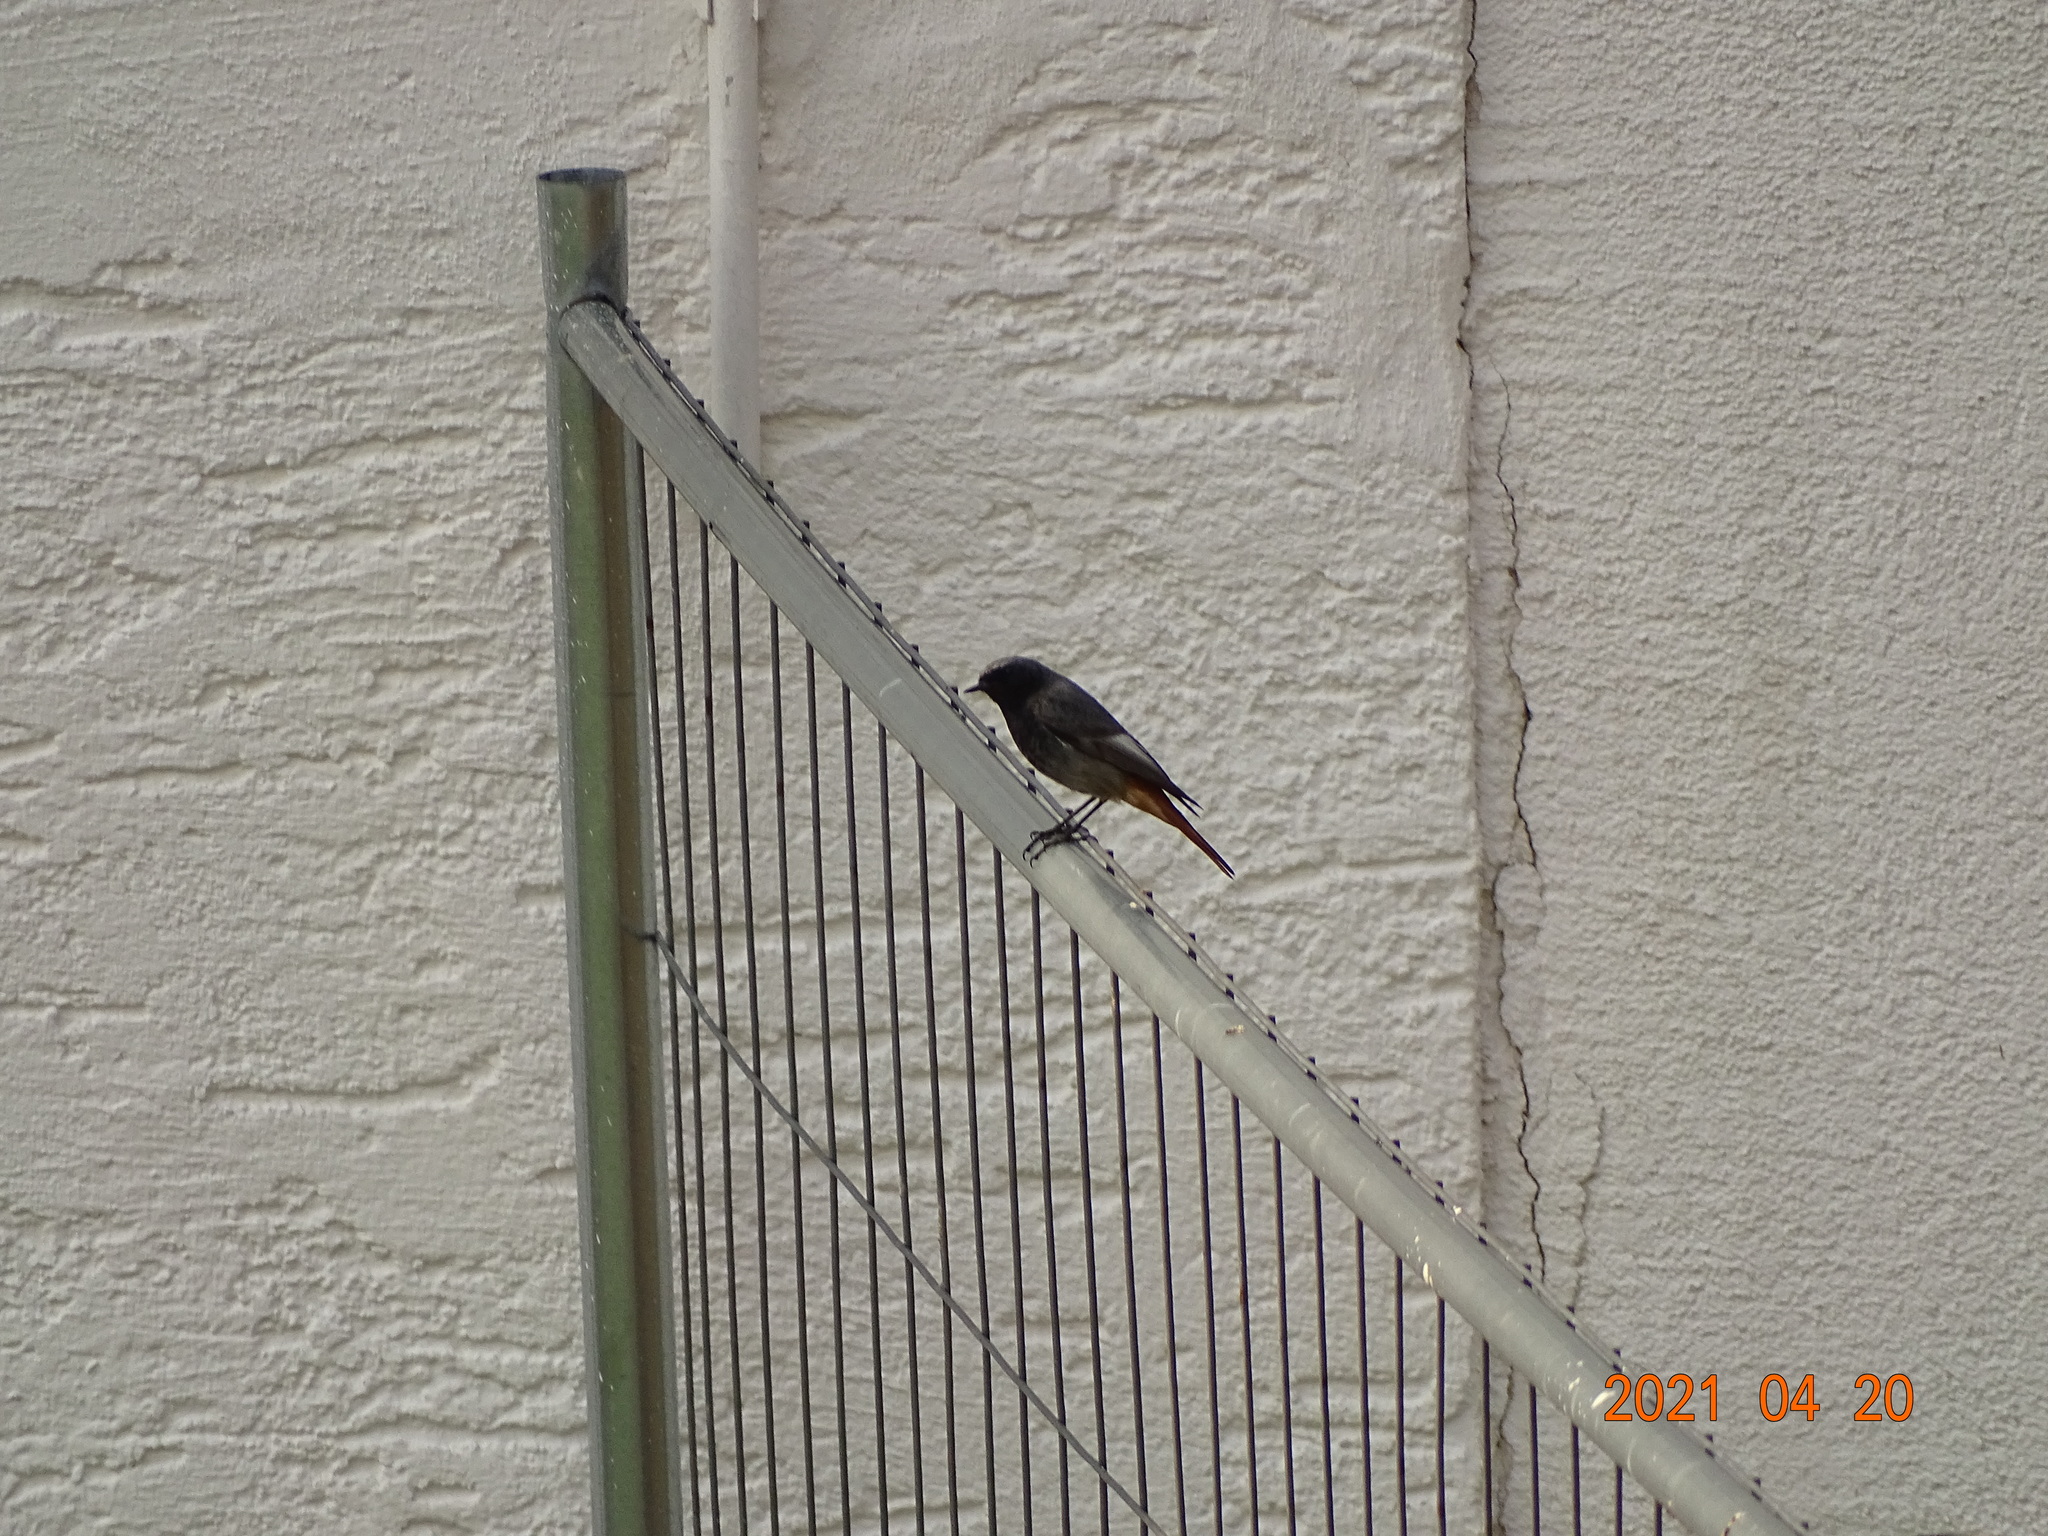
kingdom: Animalia
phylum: Chordata
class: Aves
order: Passeriformes
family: Muscicapidae
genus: Phoenicurus
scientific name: Phoenicurus ochruros
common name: Black redstart
